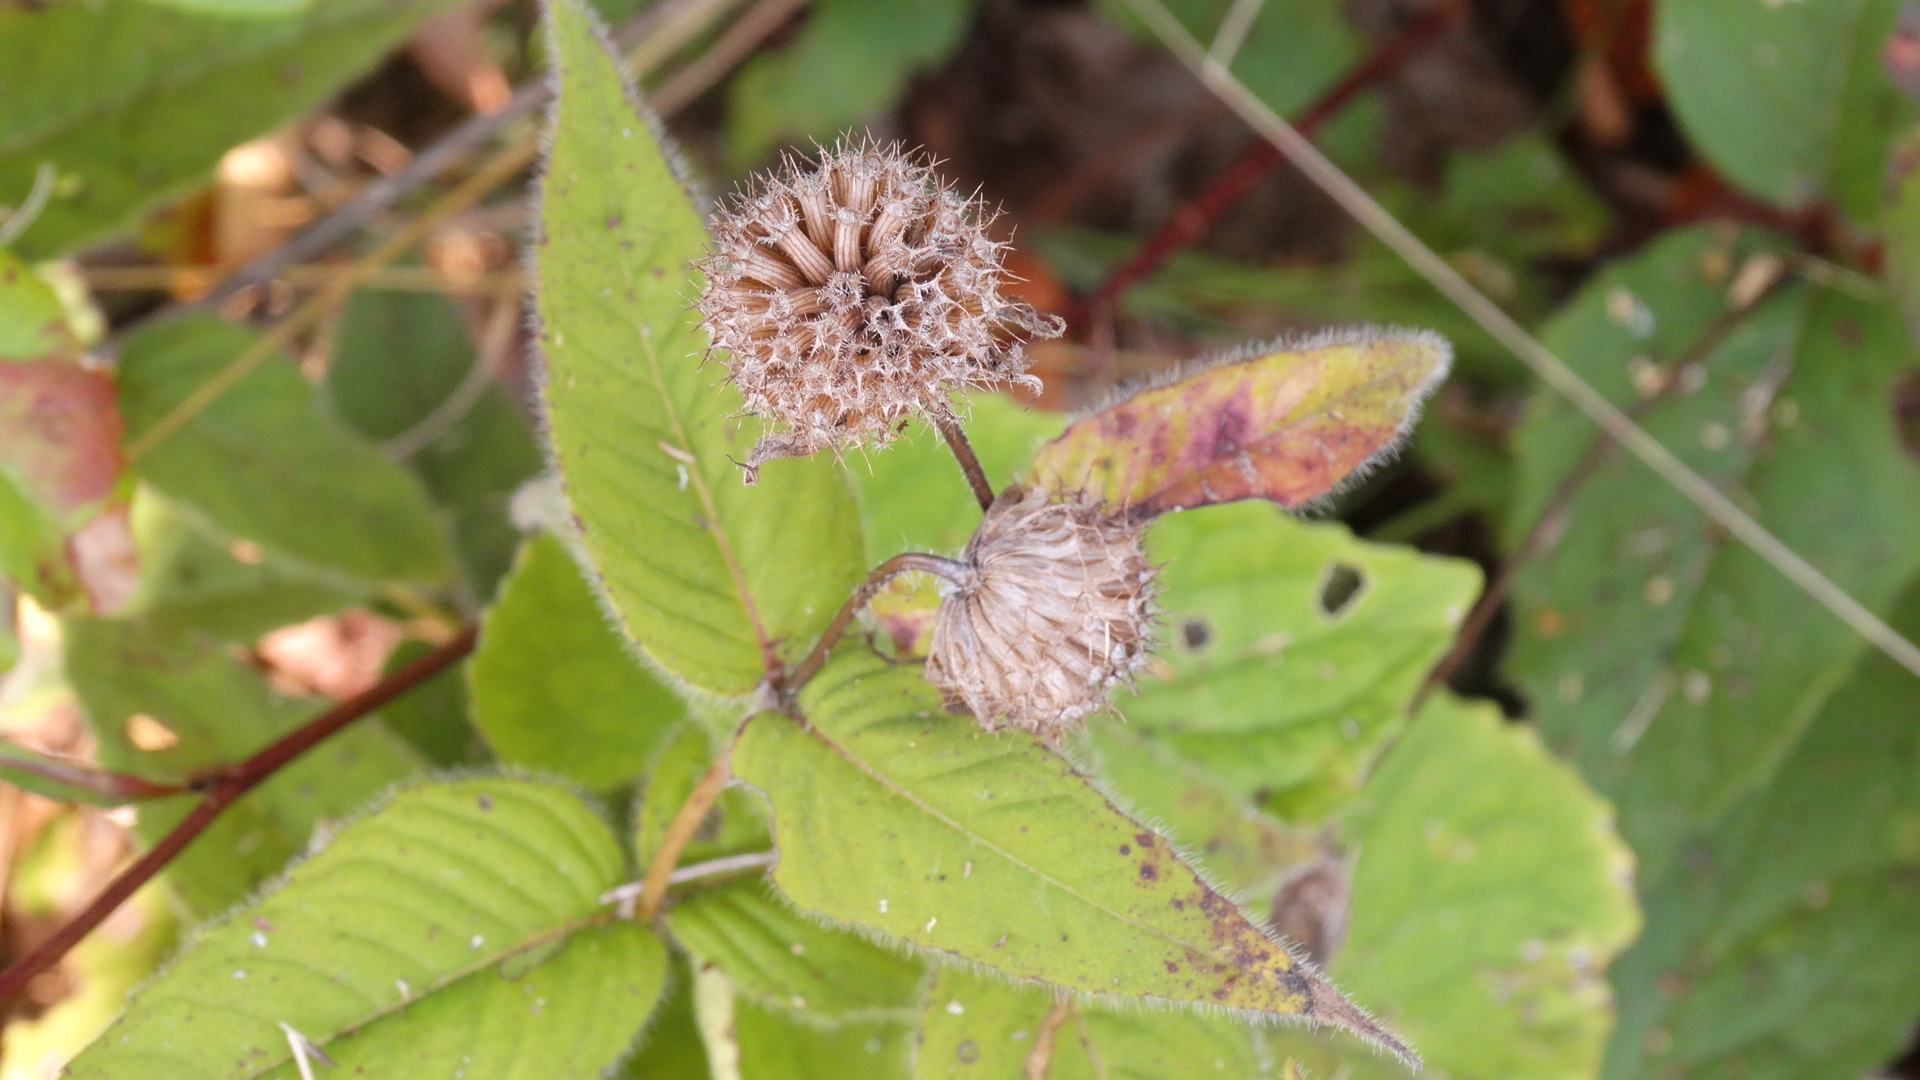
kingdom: Plantae
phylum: Tracheophyta
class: Magnoliopsida
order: Lamiales
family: Lamiaceae
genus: Monarda
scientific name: Monarda bradburiana
